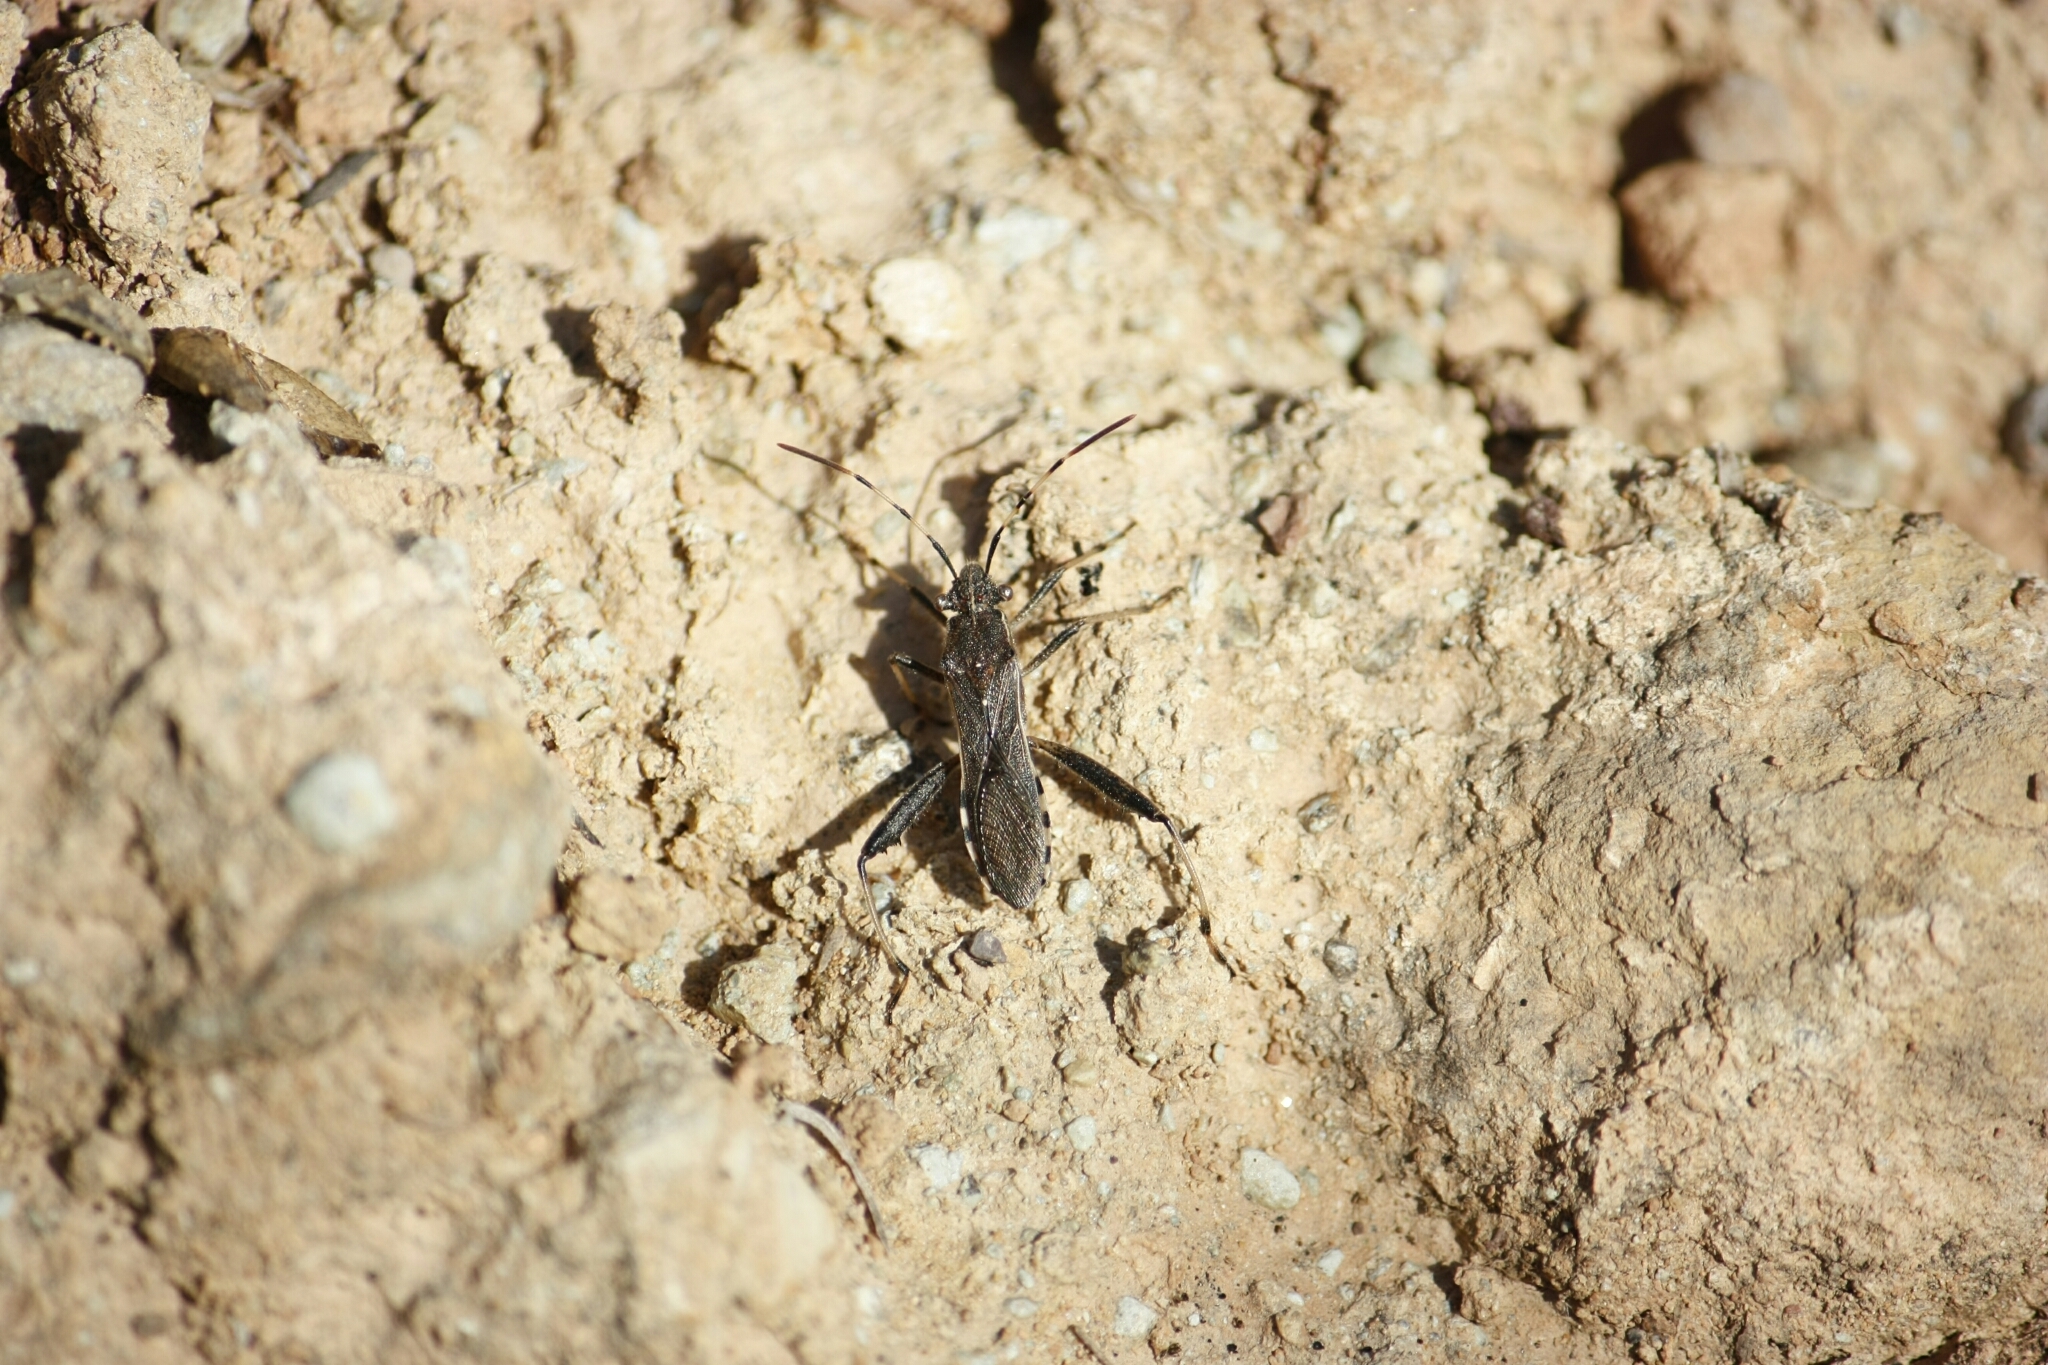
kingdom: Animalia
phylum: Arthropoda
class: Insecta
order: Hemiptera
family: Alydidae
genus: Camptopus
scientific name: Camptopus lateralis
